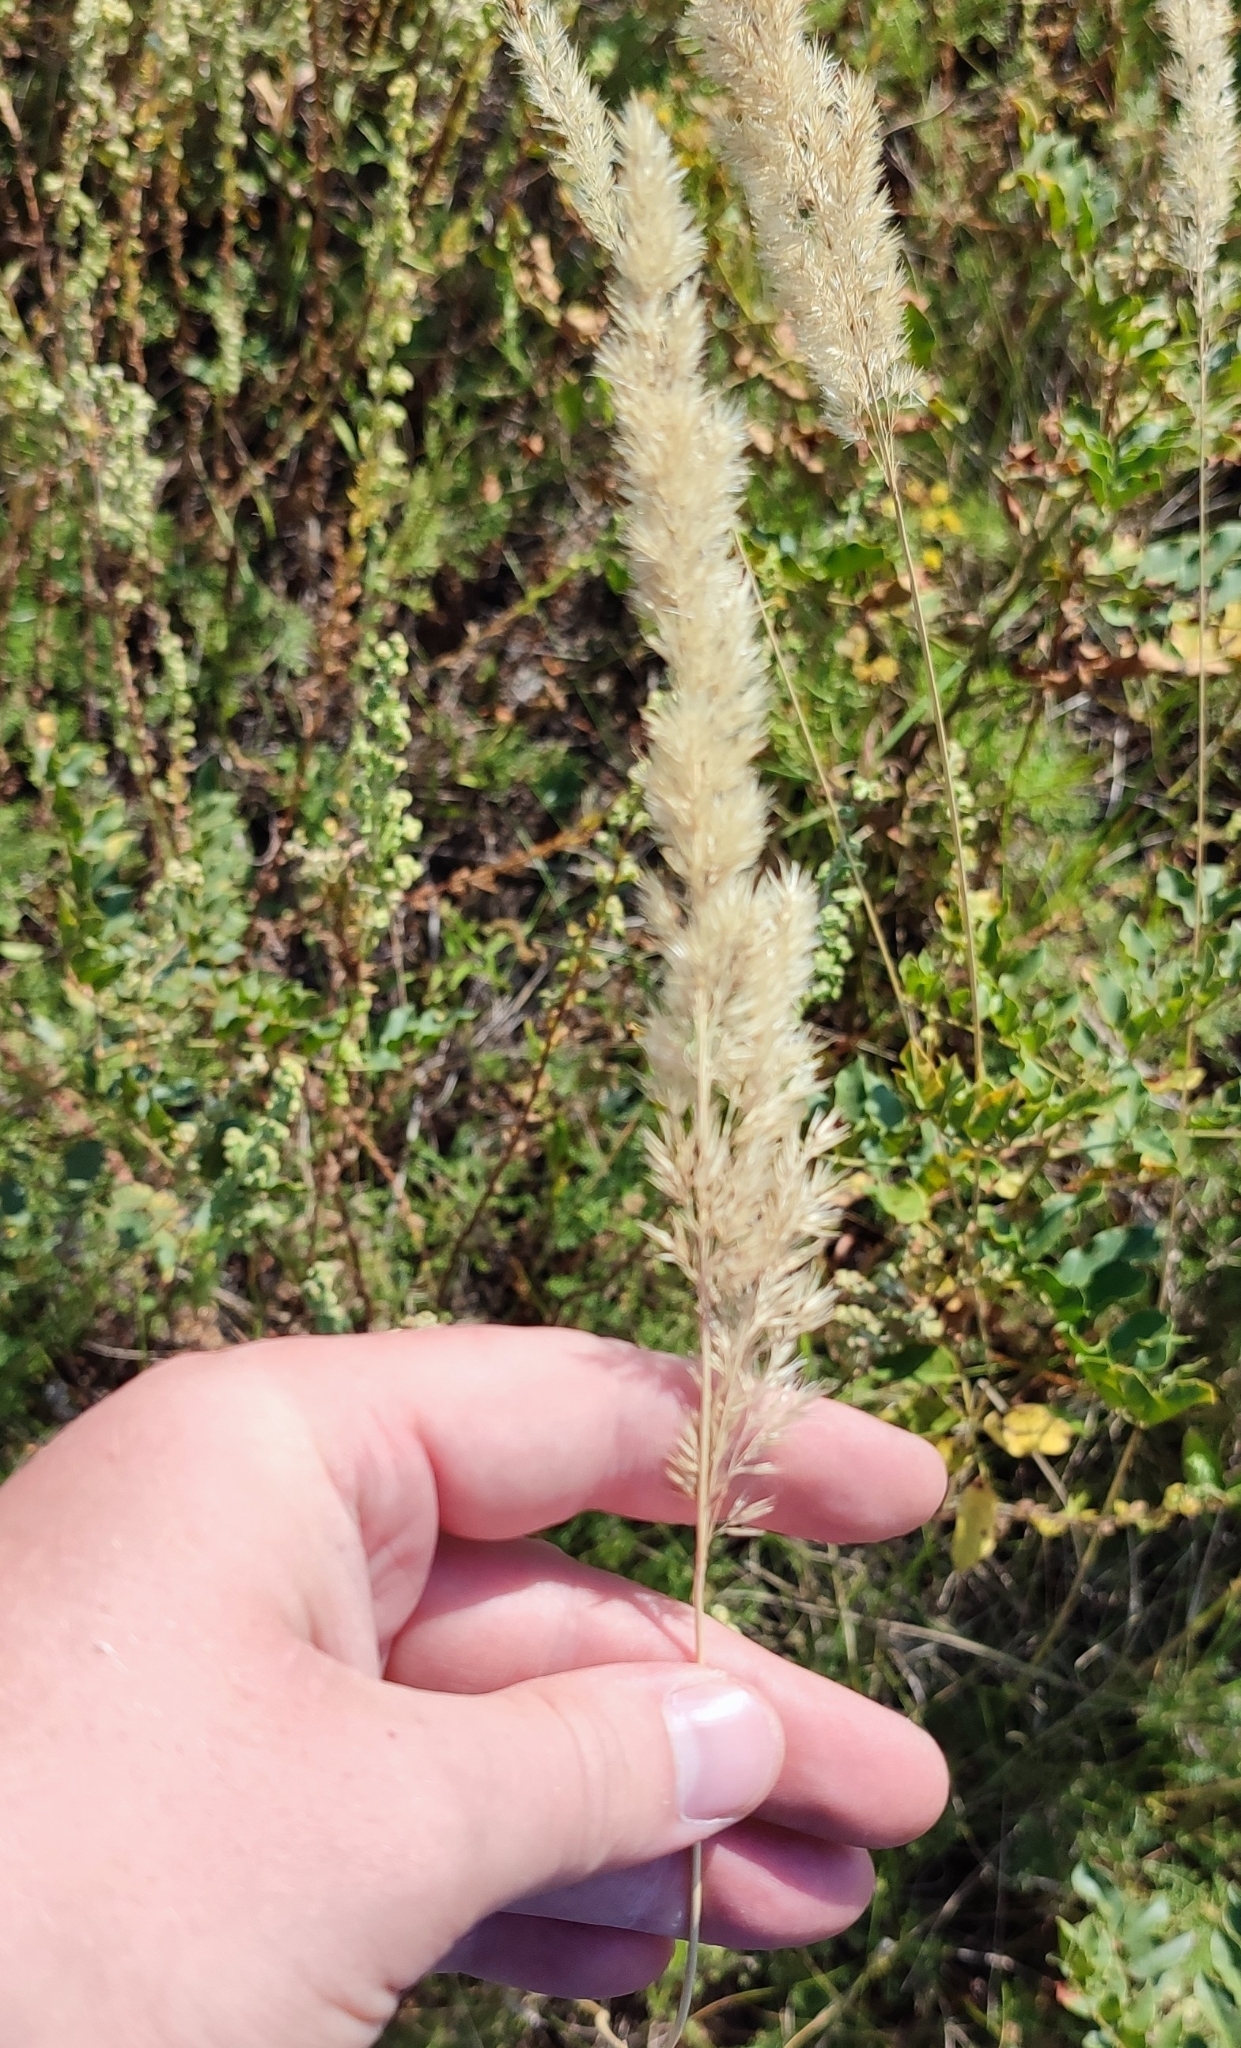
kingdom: Plantae
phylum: Tracheophyta
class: Liliopsida
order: Poales
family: Poaceae
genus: Calamagrostis
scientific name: Calamagrostis epigejos
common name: Wood small-reed
